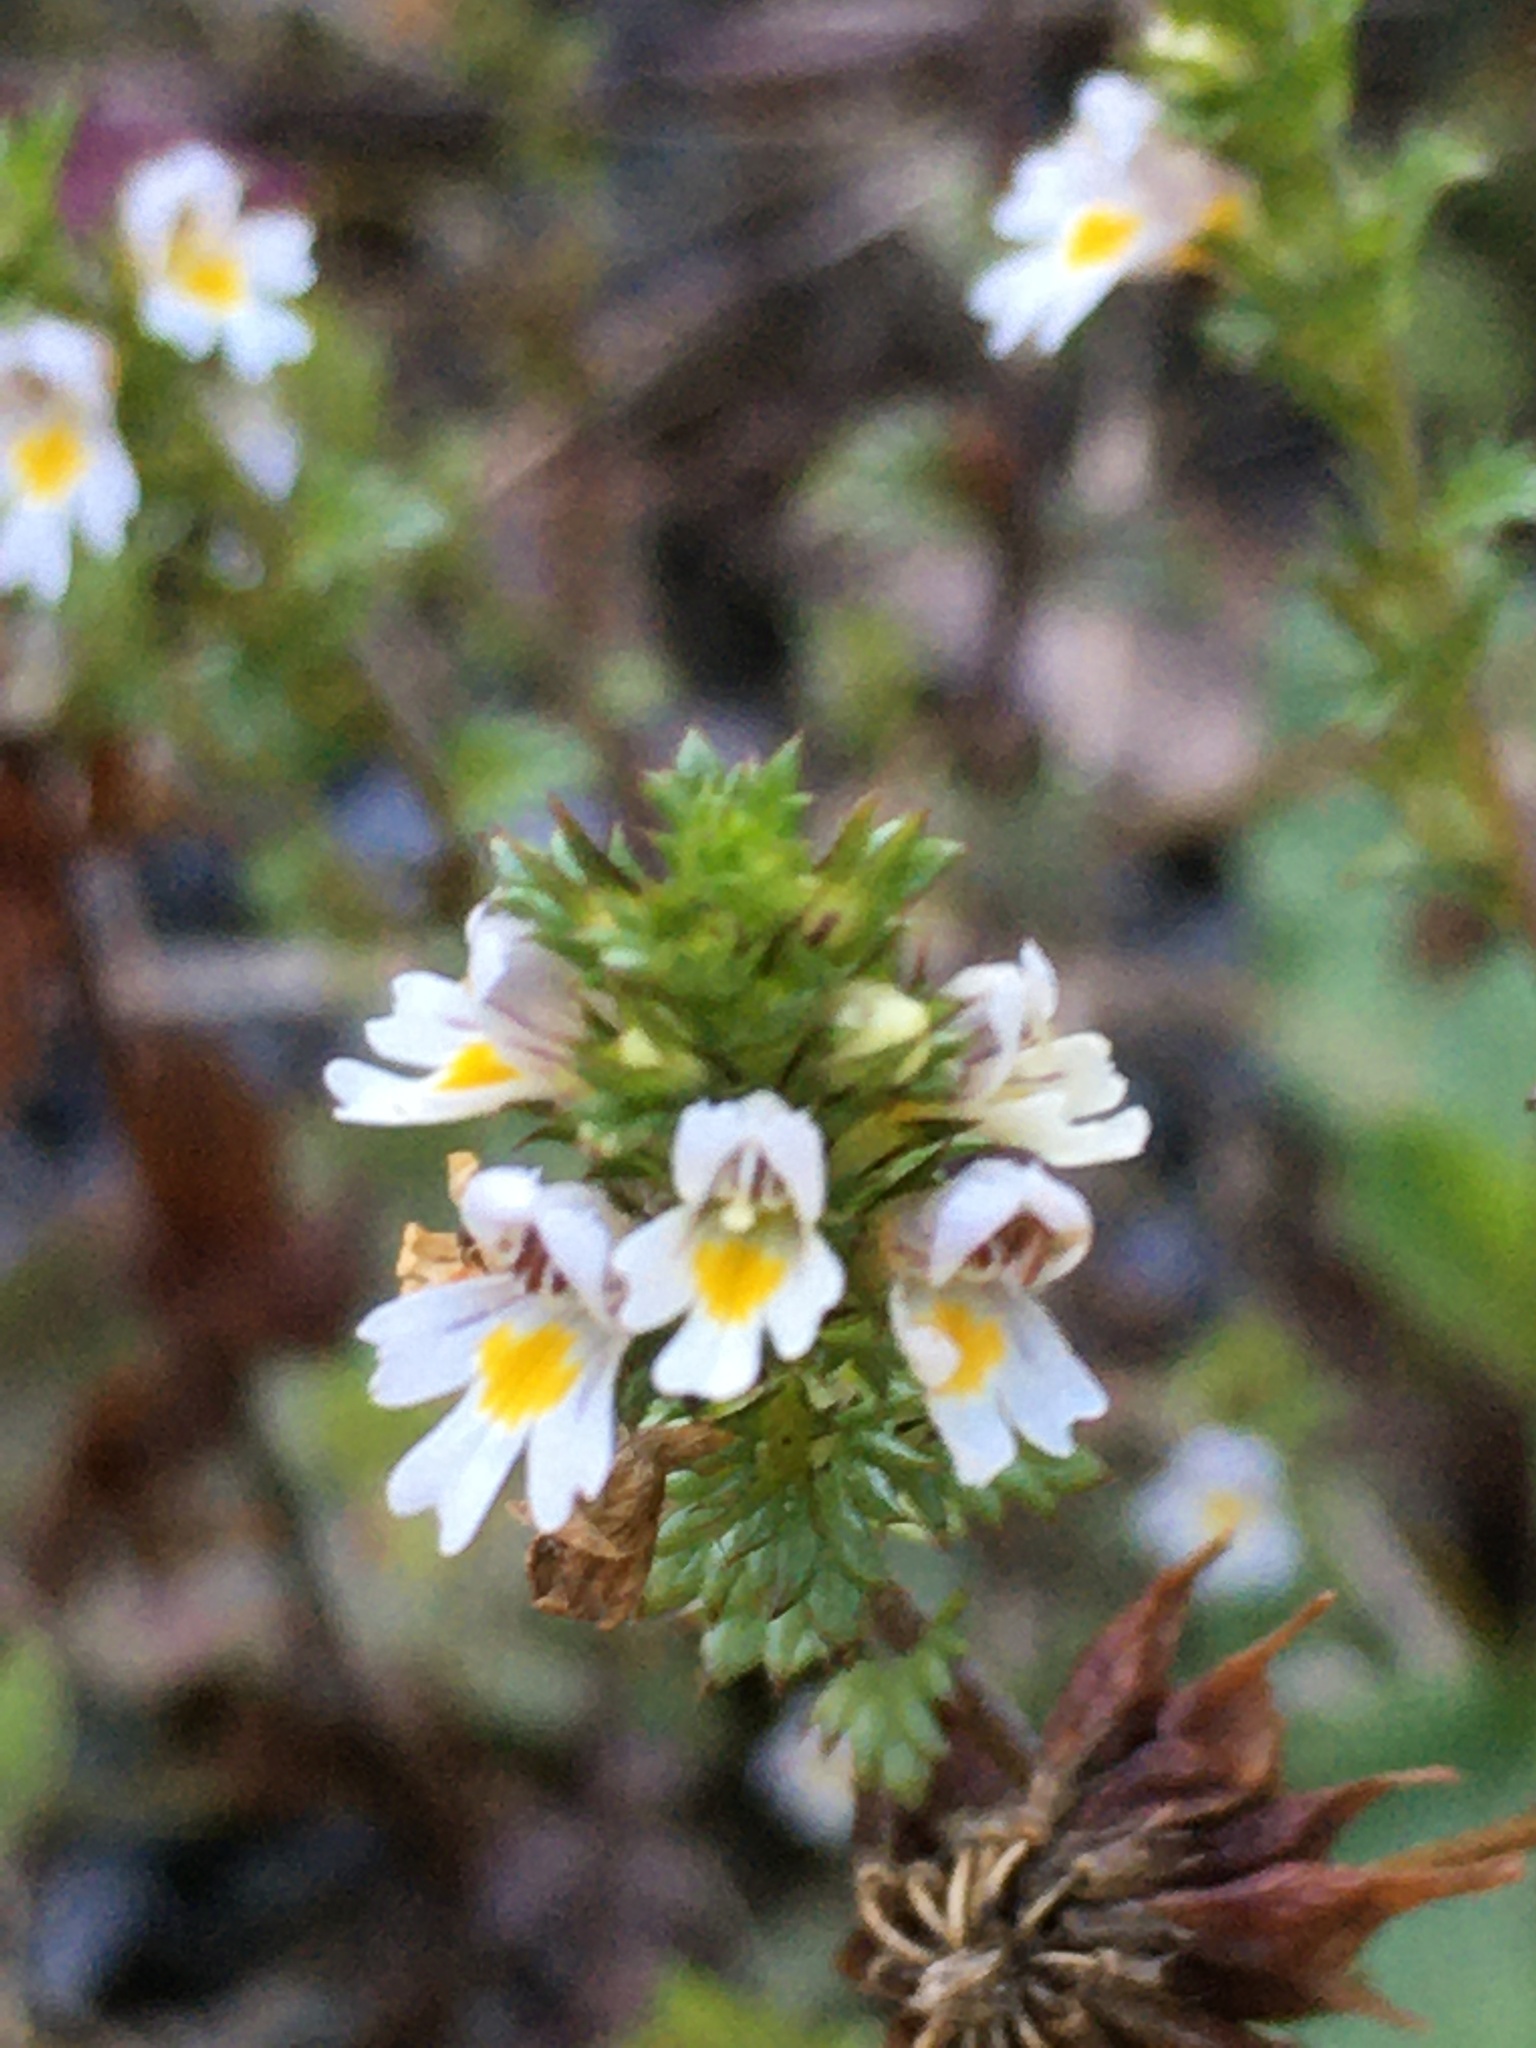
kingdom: Plantae
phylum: Tracheophyta
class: Magnoliopsida
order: Lamiales
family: Orobanchaceae
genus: Euphrasia
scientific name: Euphrasia nemorosa
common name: Common eyebright
